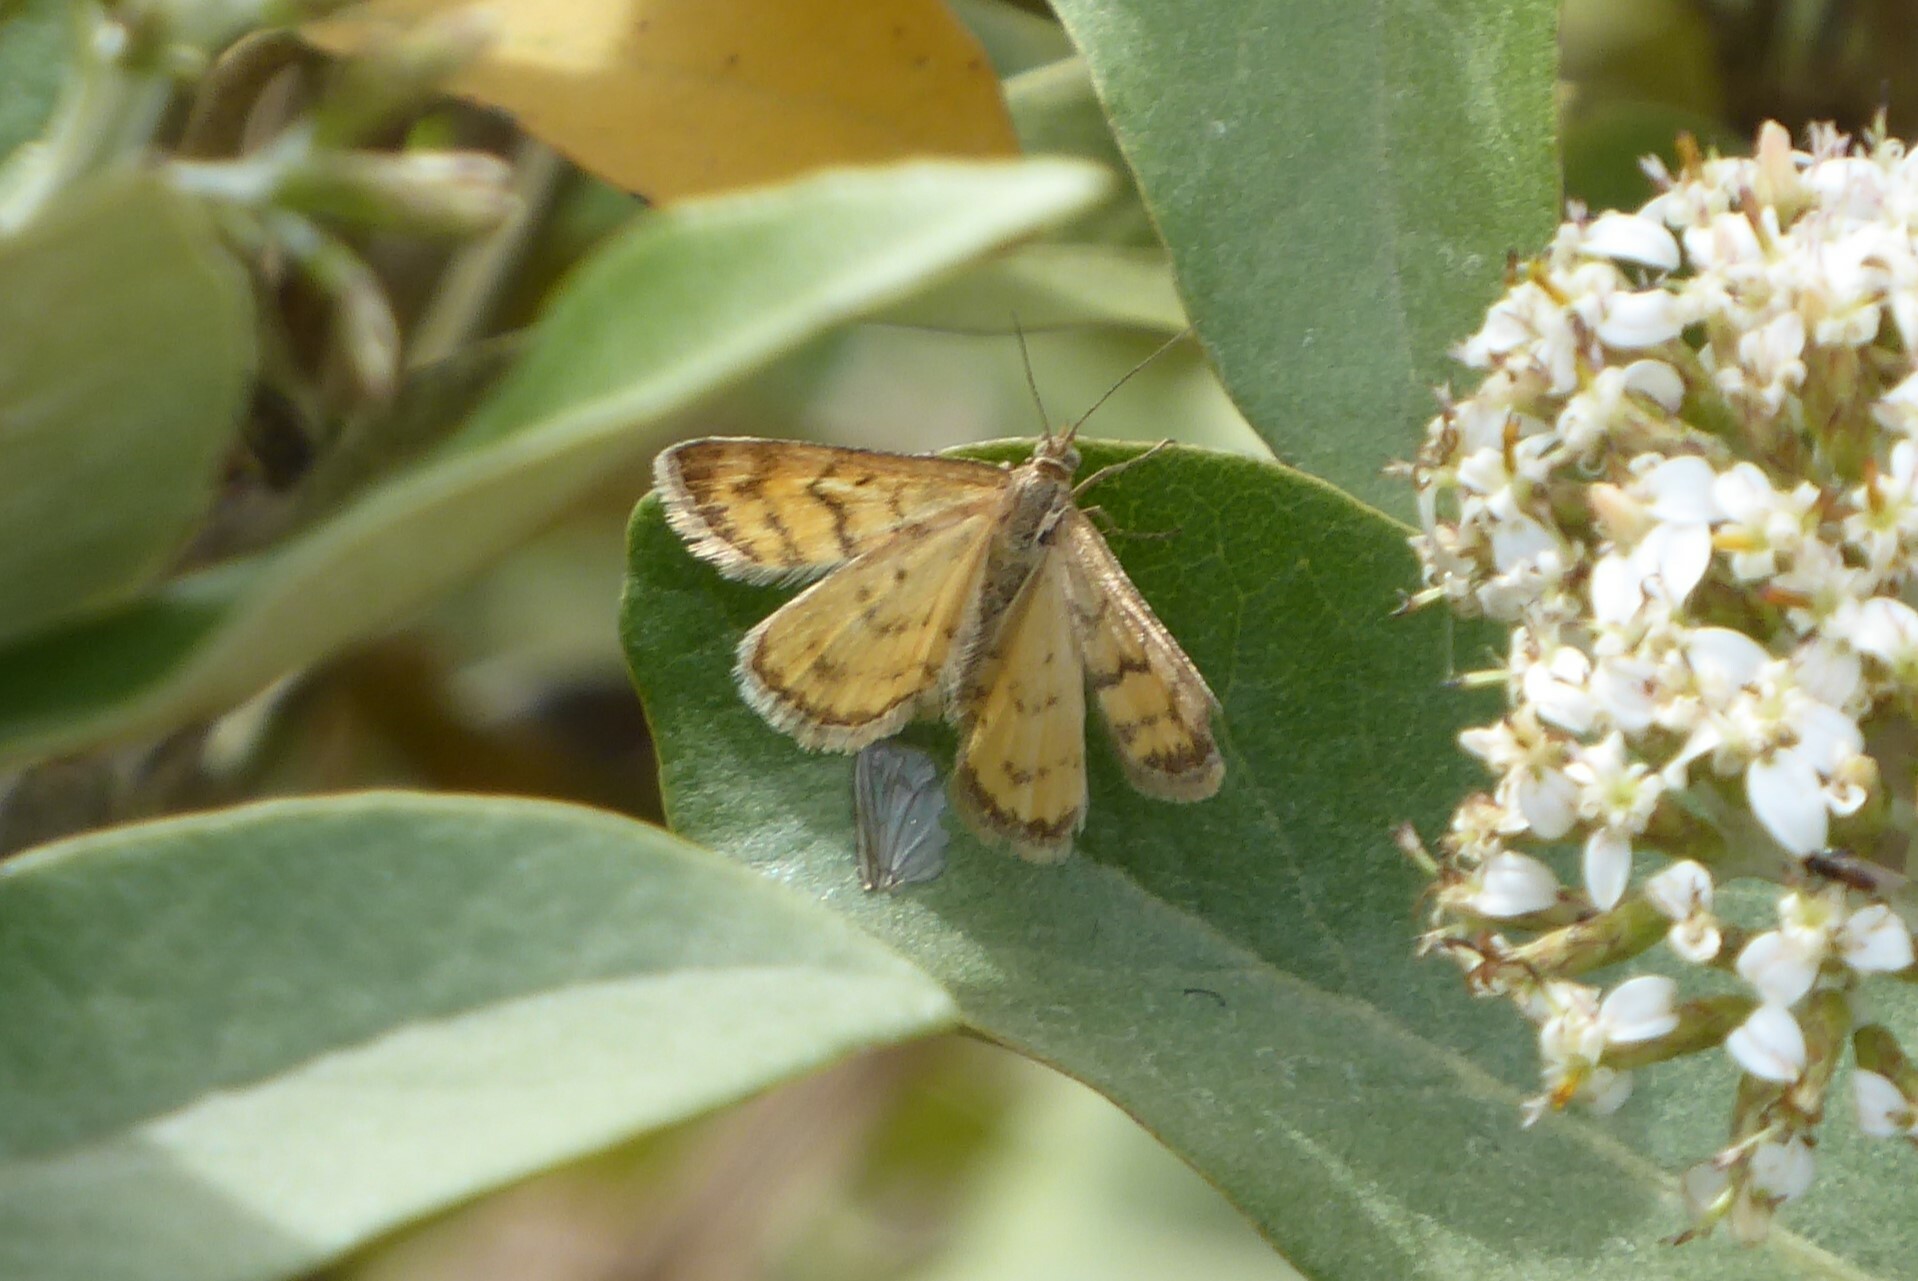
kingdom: Animalia
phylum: Arthropoda
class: Insecta
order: Lepidoptera
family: Geometridae
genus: Asaphodes
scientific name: Asaphodes abrogata
